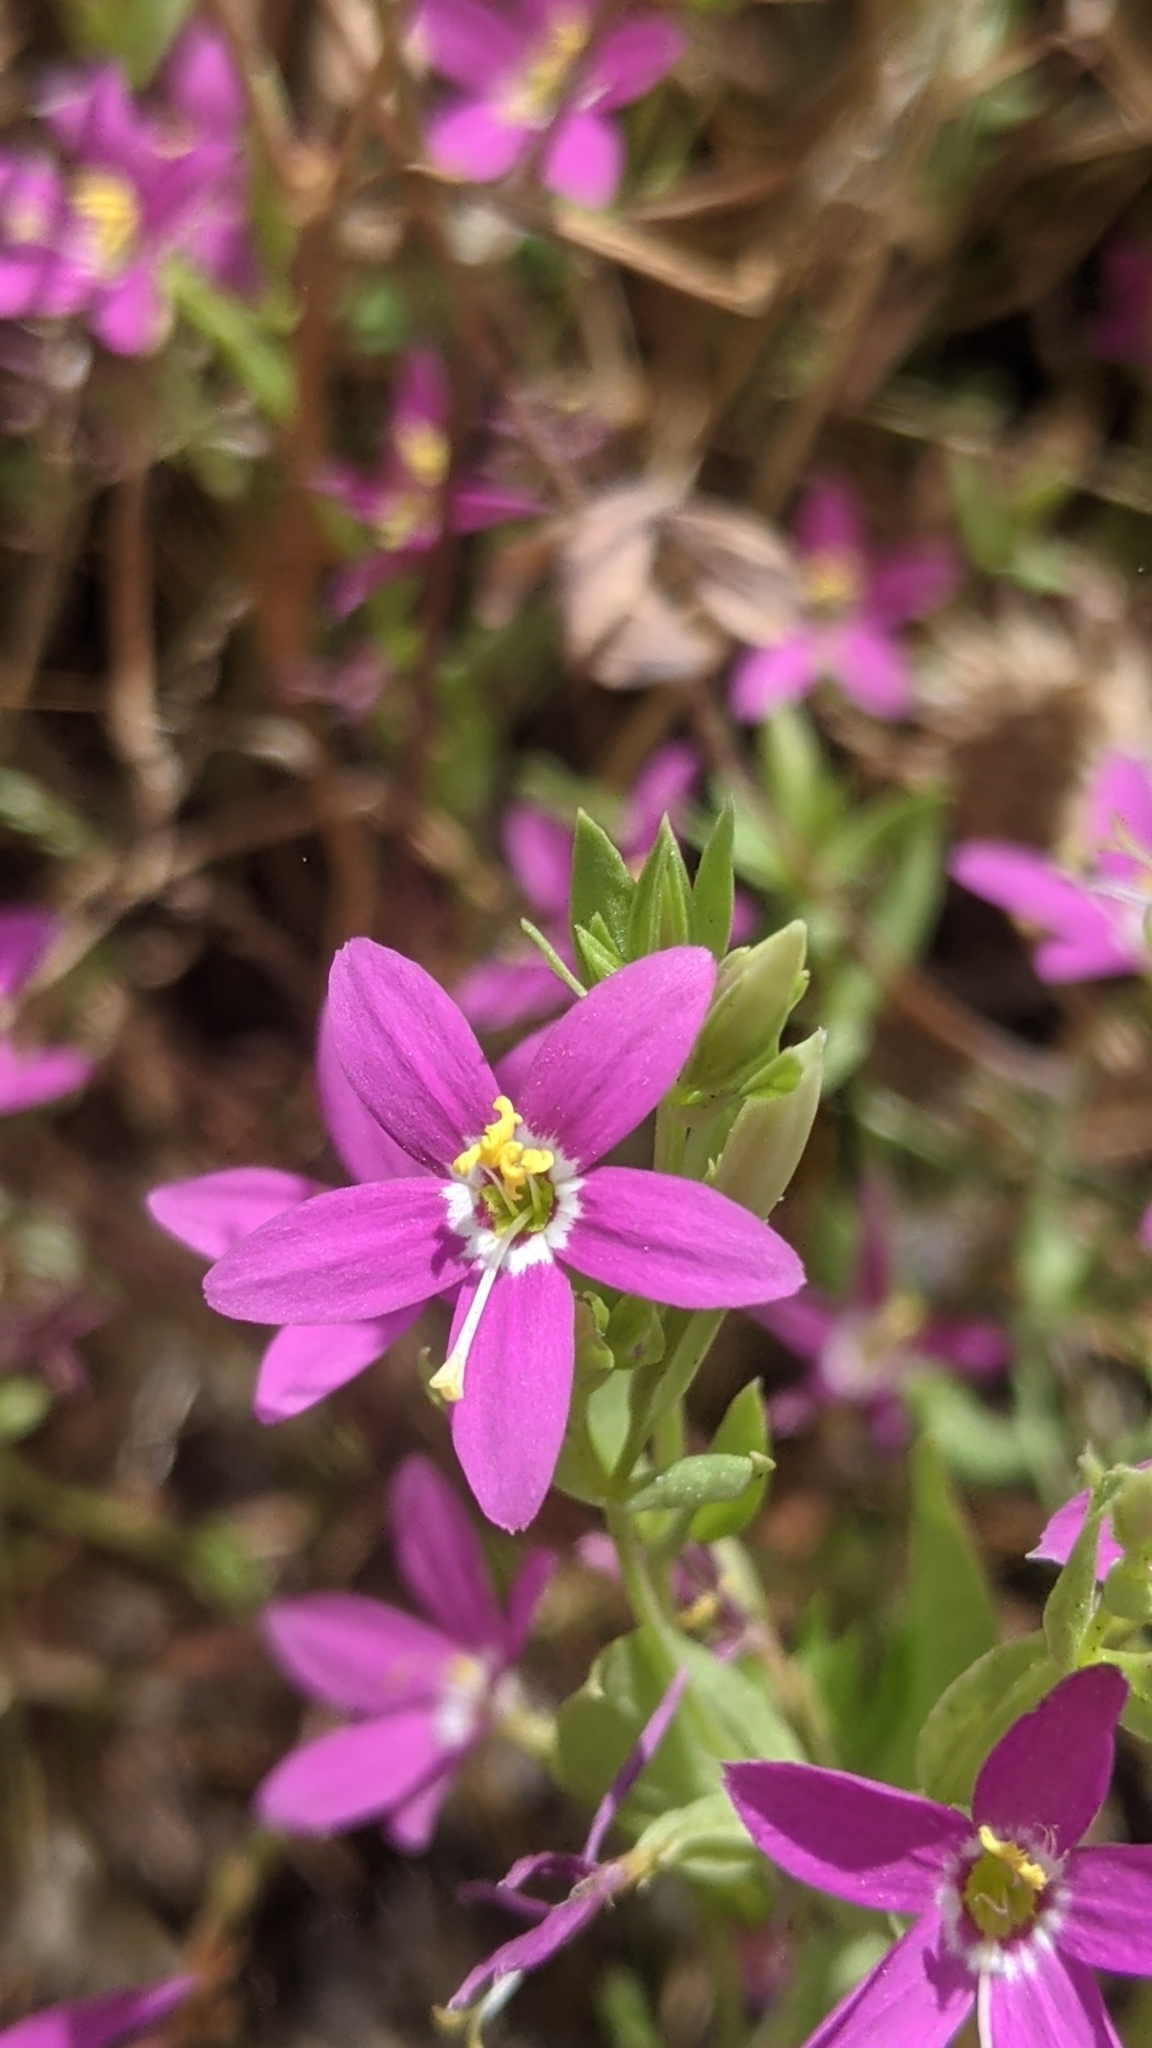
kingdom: Plantae
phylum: Tracheophyta
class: Magnoliopsida
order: Gentianales
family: Gentianaceae
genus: Zeltnera
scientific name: Zeltnera venusta
